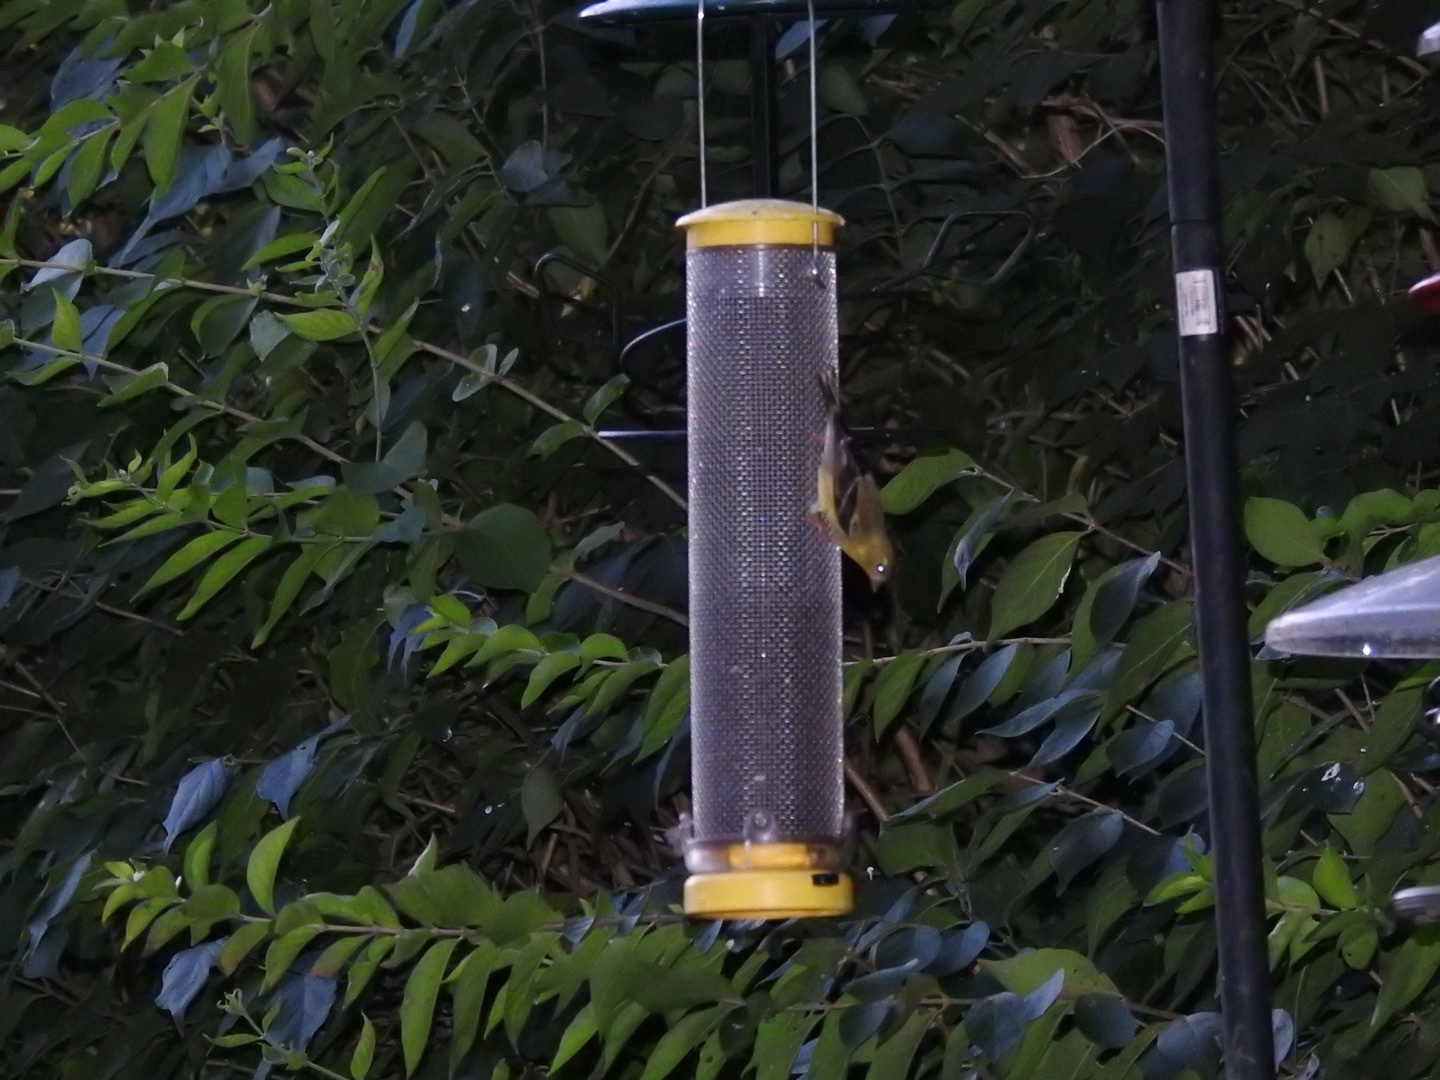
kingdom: Animalia
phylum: Chordata
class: Aves
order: Passeriformes
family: Fringillidae
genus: Spinus
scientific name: Spinus tristis
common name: American goldfinch
